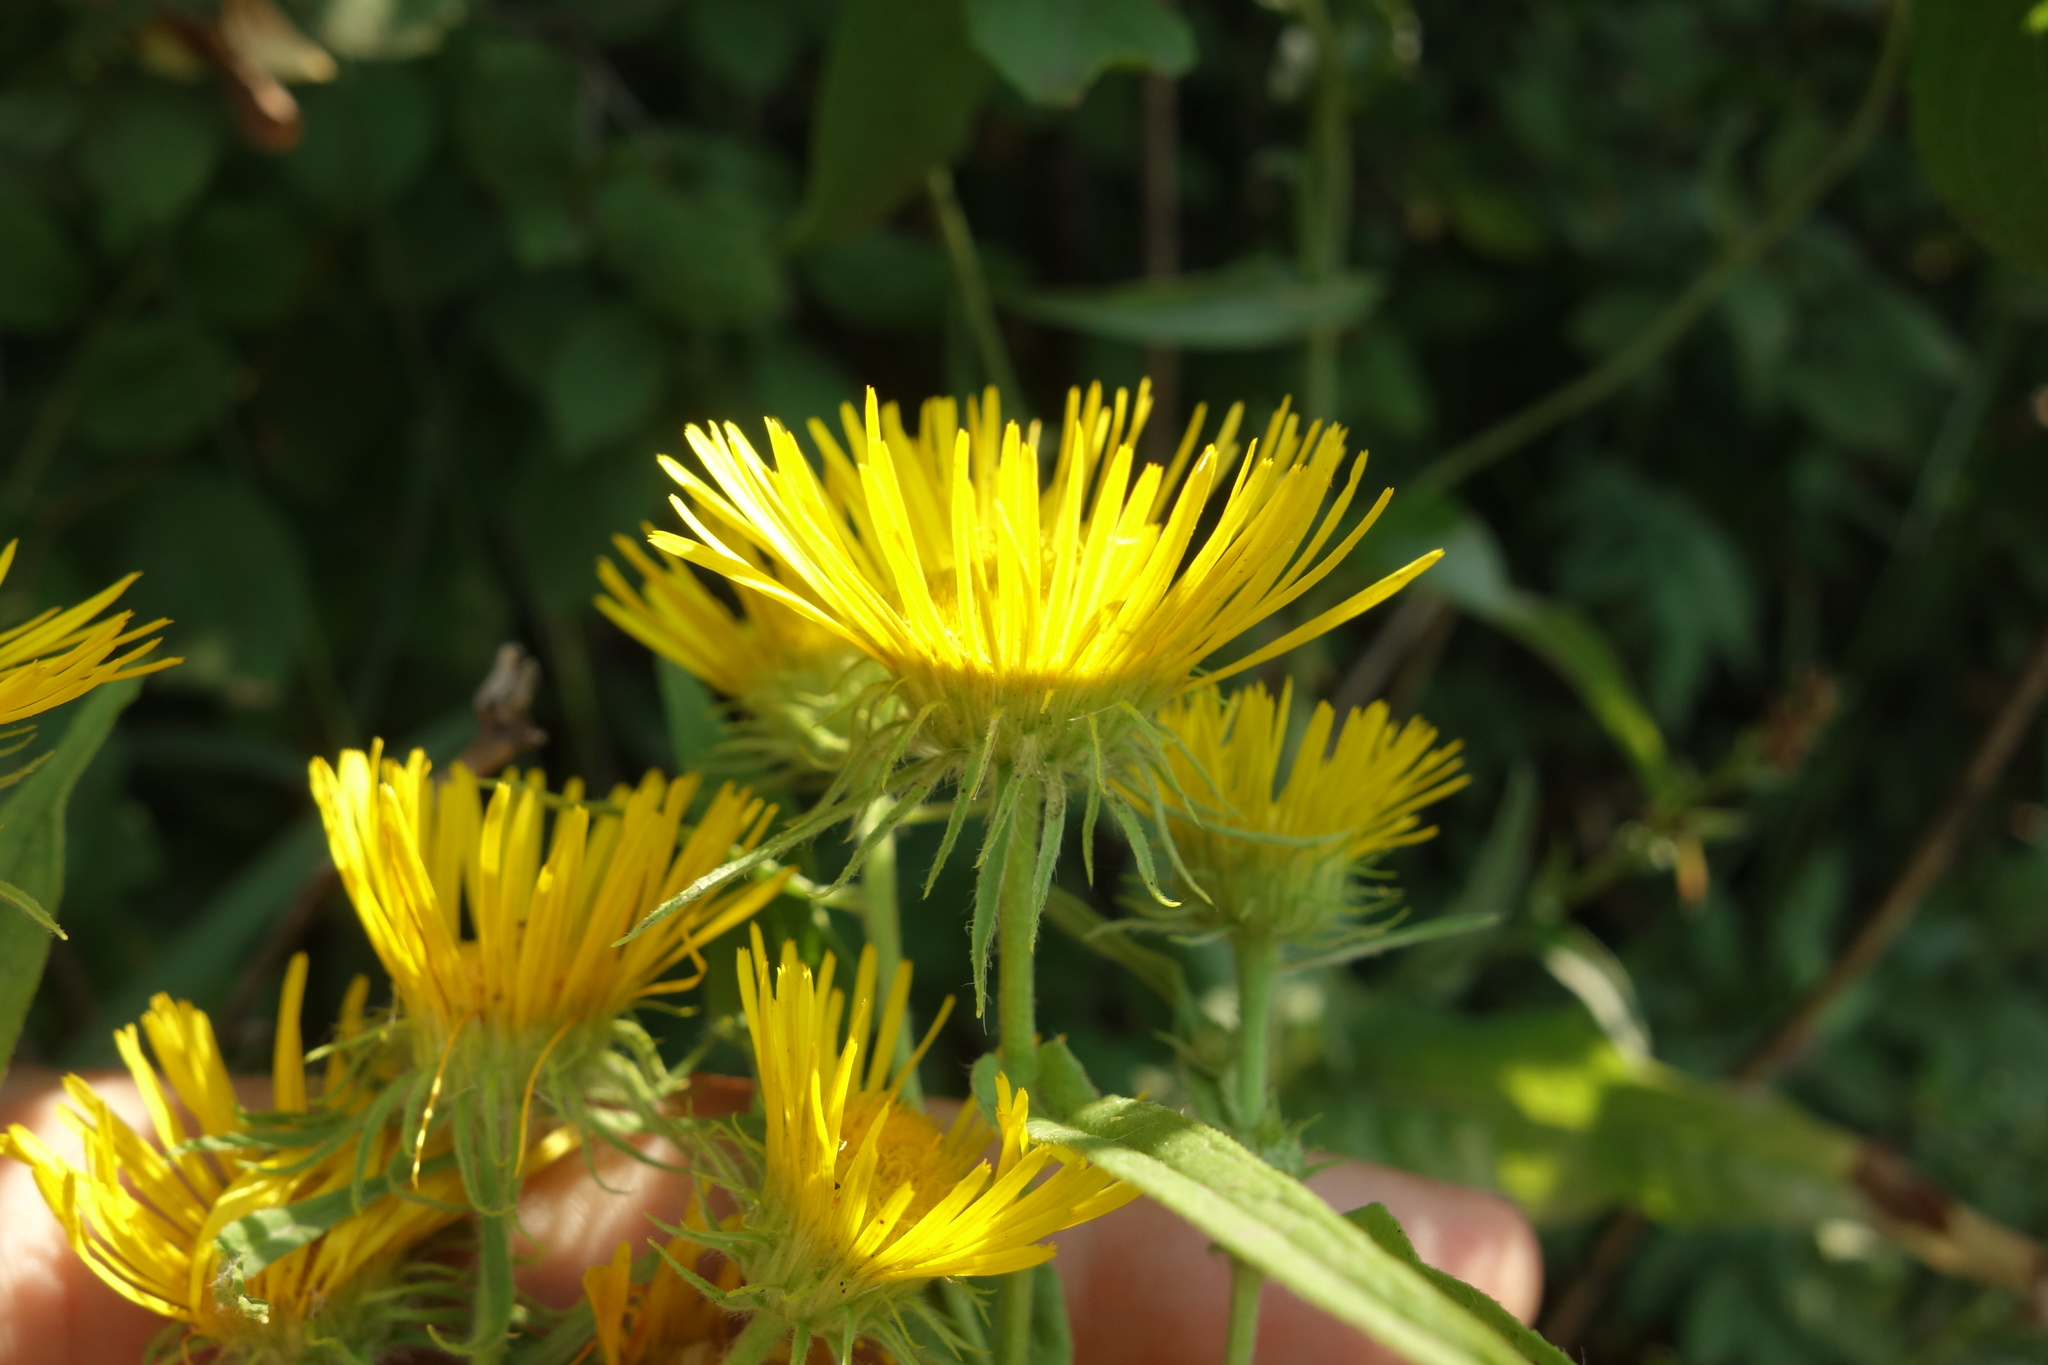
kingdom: Plantae
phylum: Tracheophyta
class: Magnoliopsida
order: Asterales
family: Asteraceae
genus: Pentanema
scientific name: Pentanema britannicum
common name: British elecampane
